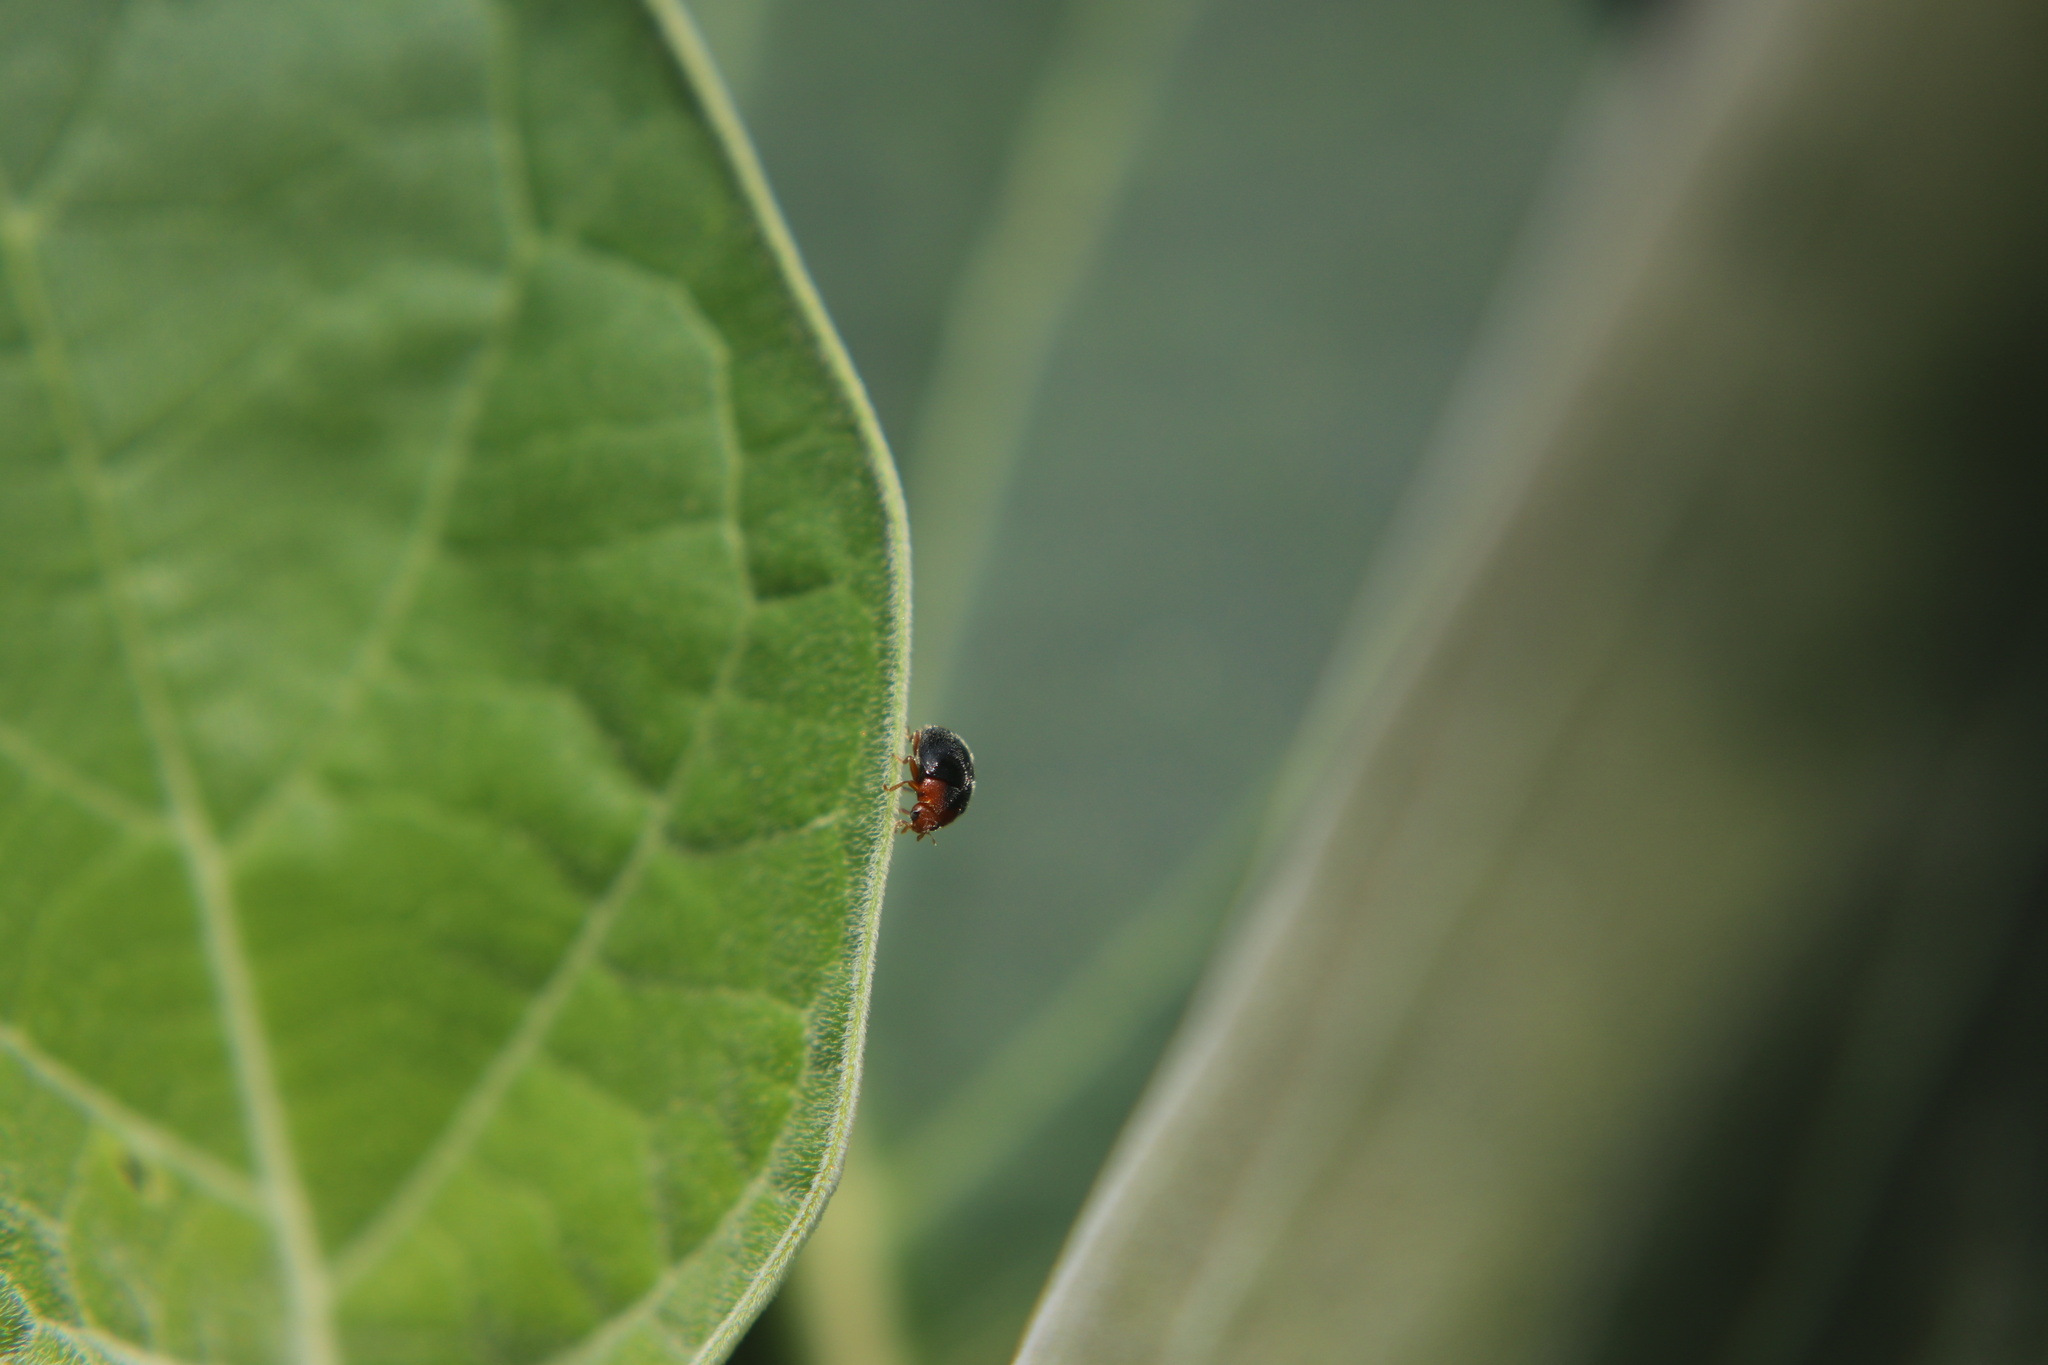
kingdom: Animalia
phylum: Arthropoda
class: Insecta
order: Coleoptera
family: Coccinellidae
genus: Cryptolaemus
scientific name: Cryptolaemus montrouzieri
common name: Mealybug destroyer
